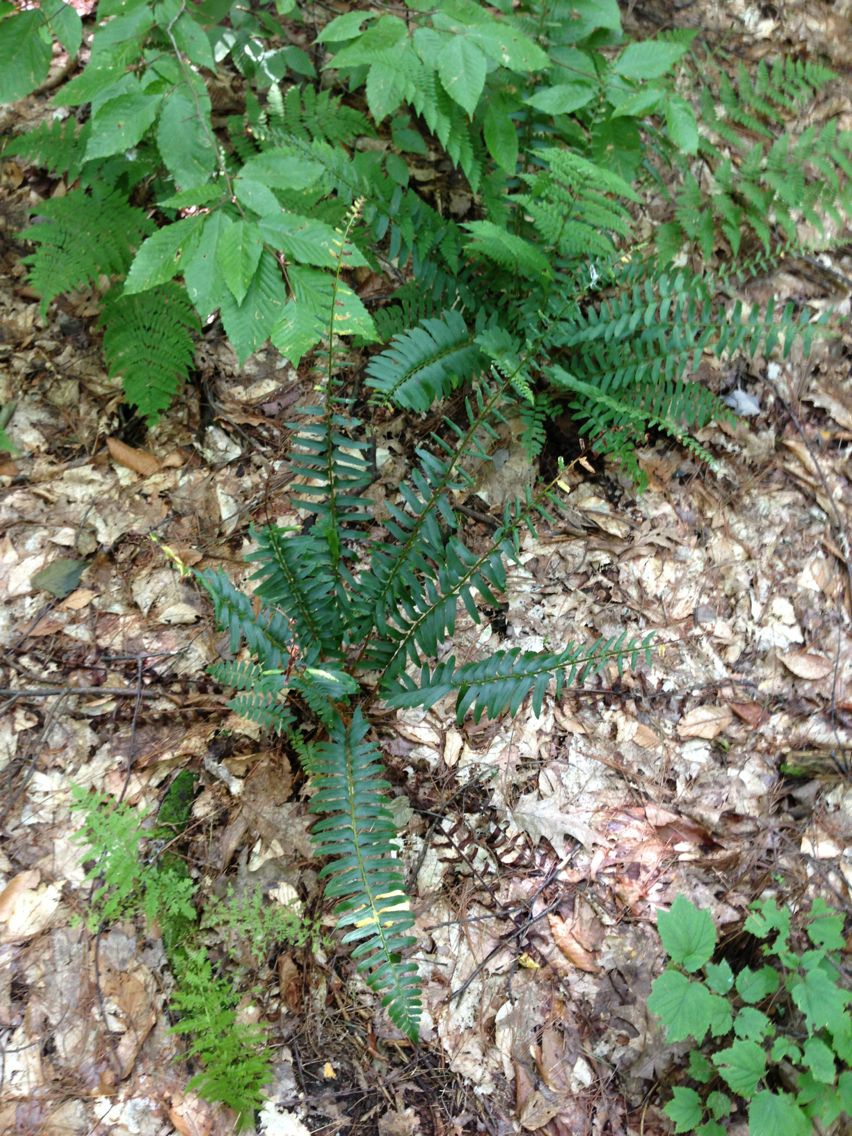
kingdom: Plantae
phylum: Tracheophyta
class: Polypodiopsida
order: Polypodiales
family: Dryopteridaceae
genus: Polystichum
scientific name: Polystichum acrostichoides
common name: Christmas fern
